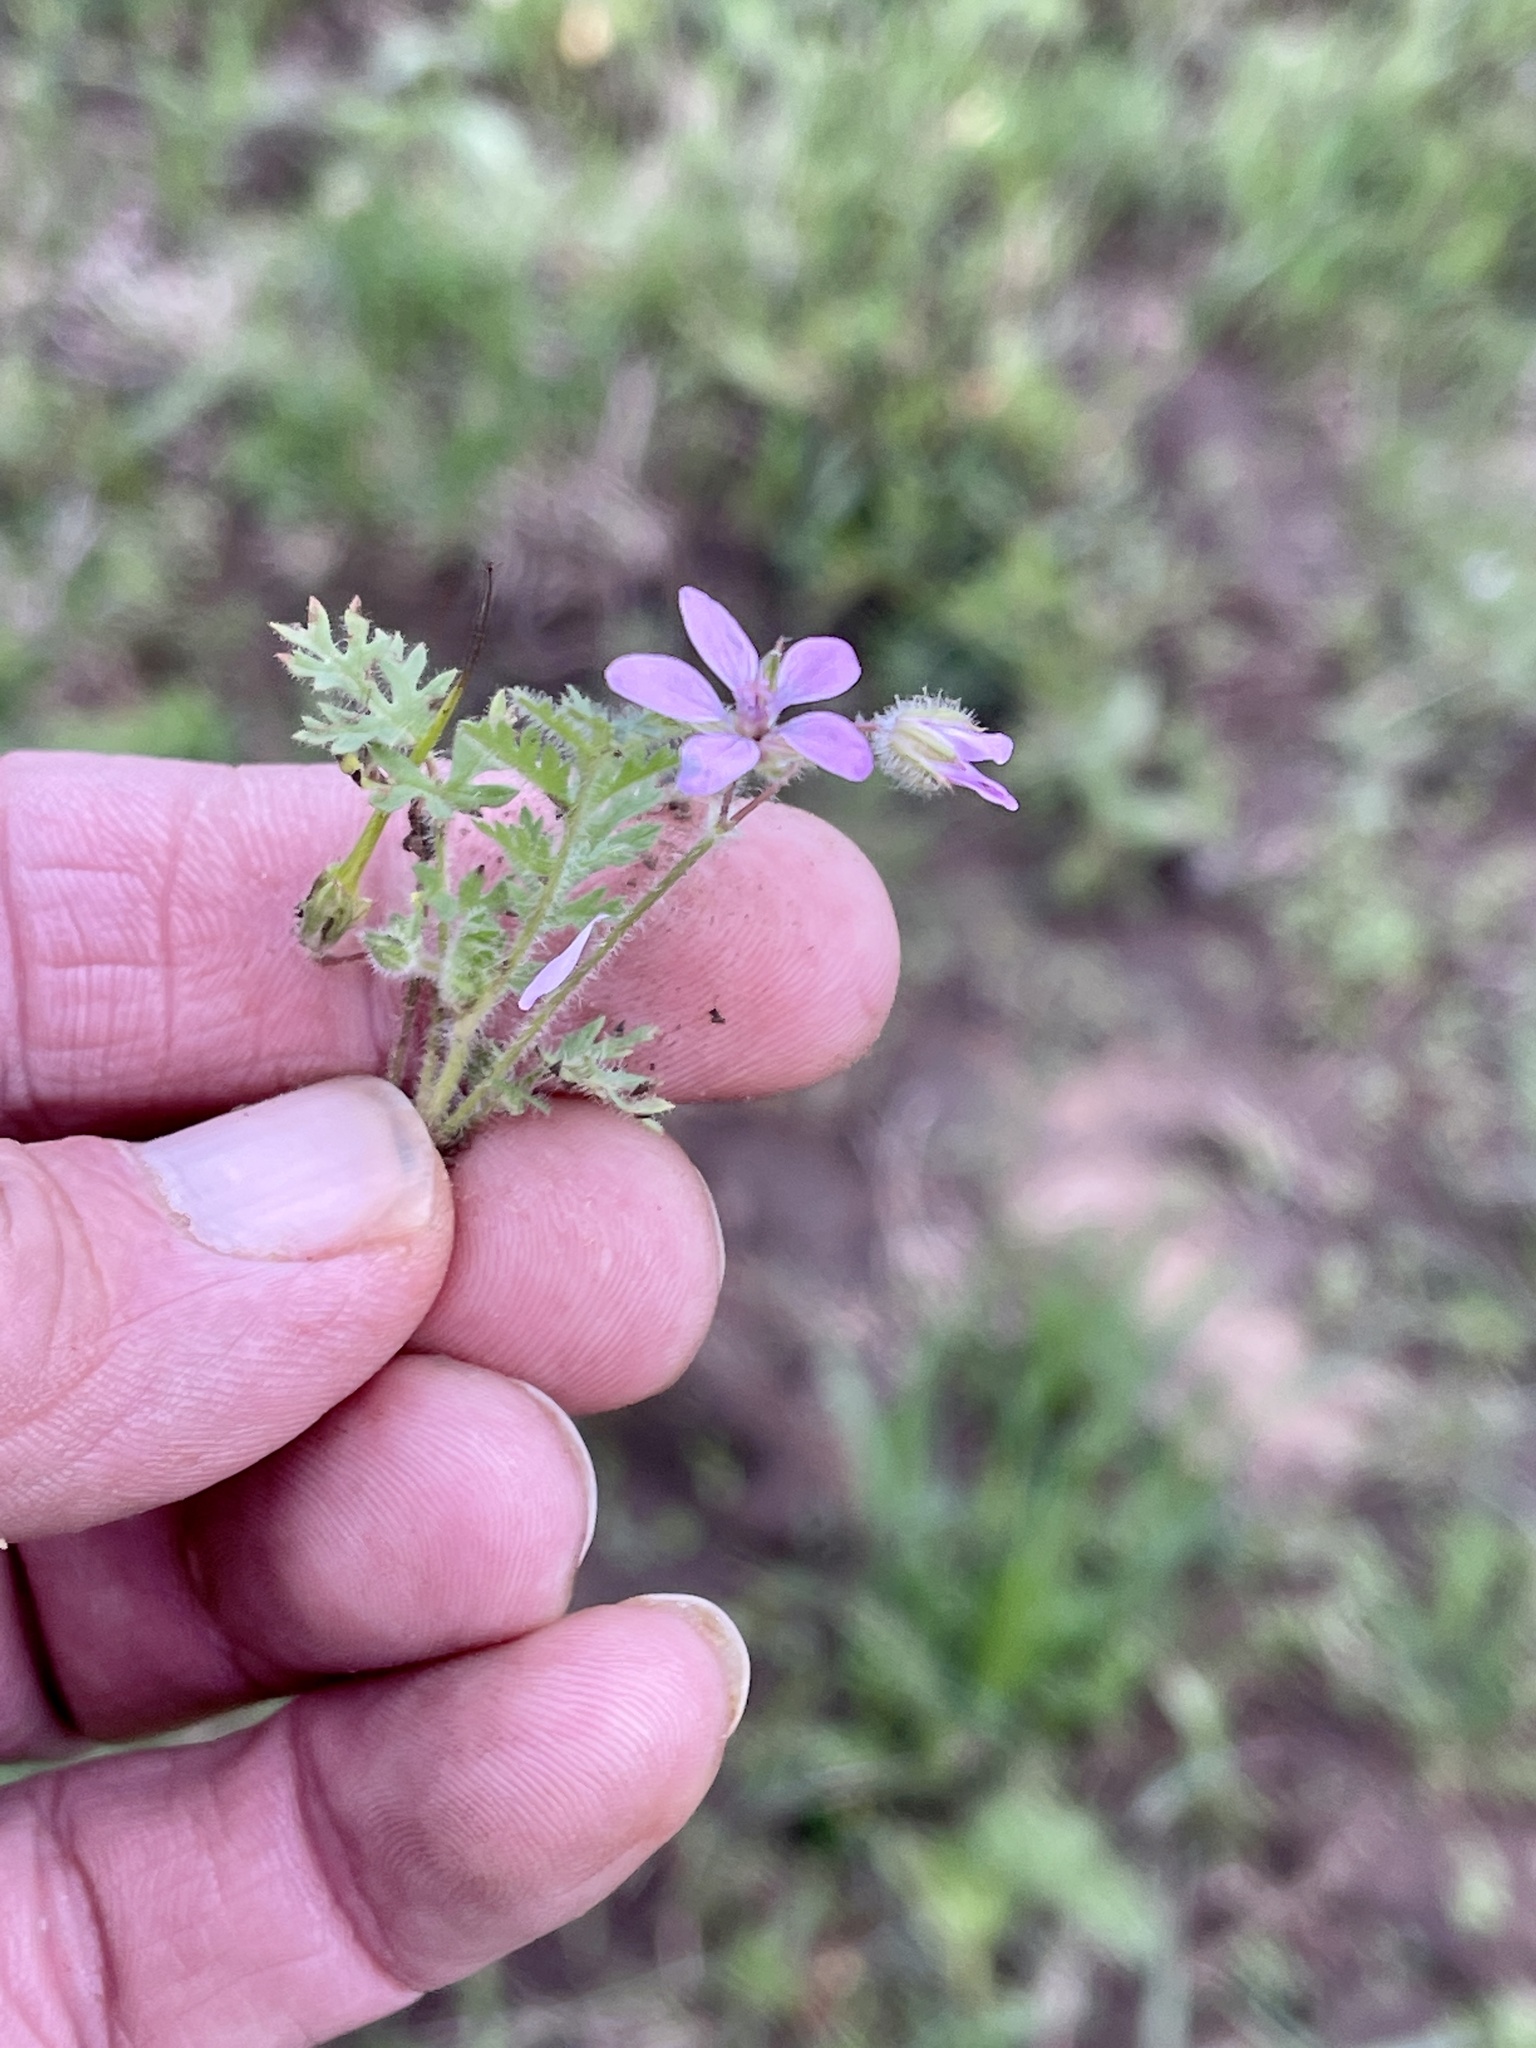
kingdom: Plantae
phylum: Tracheophyta
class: Magnoliopsida
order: Geraniales
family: Geraniaceae
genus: Erodium
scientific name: Erodium cicutarium
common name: Common stork's-bill
